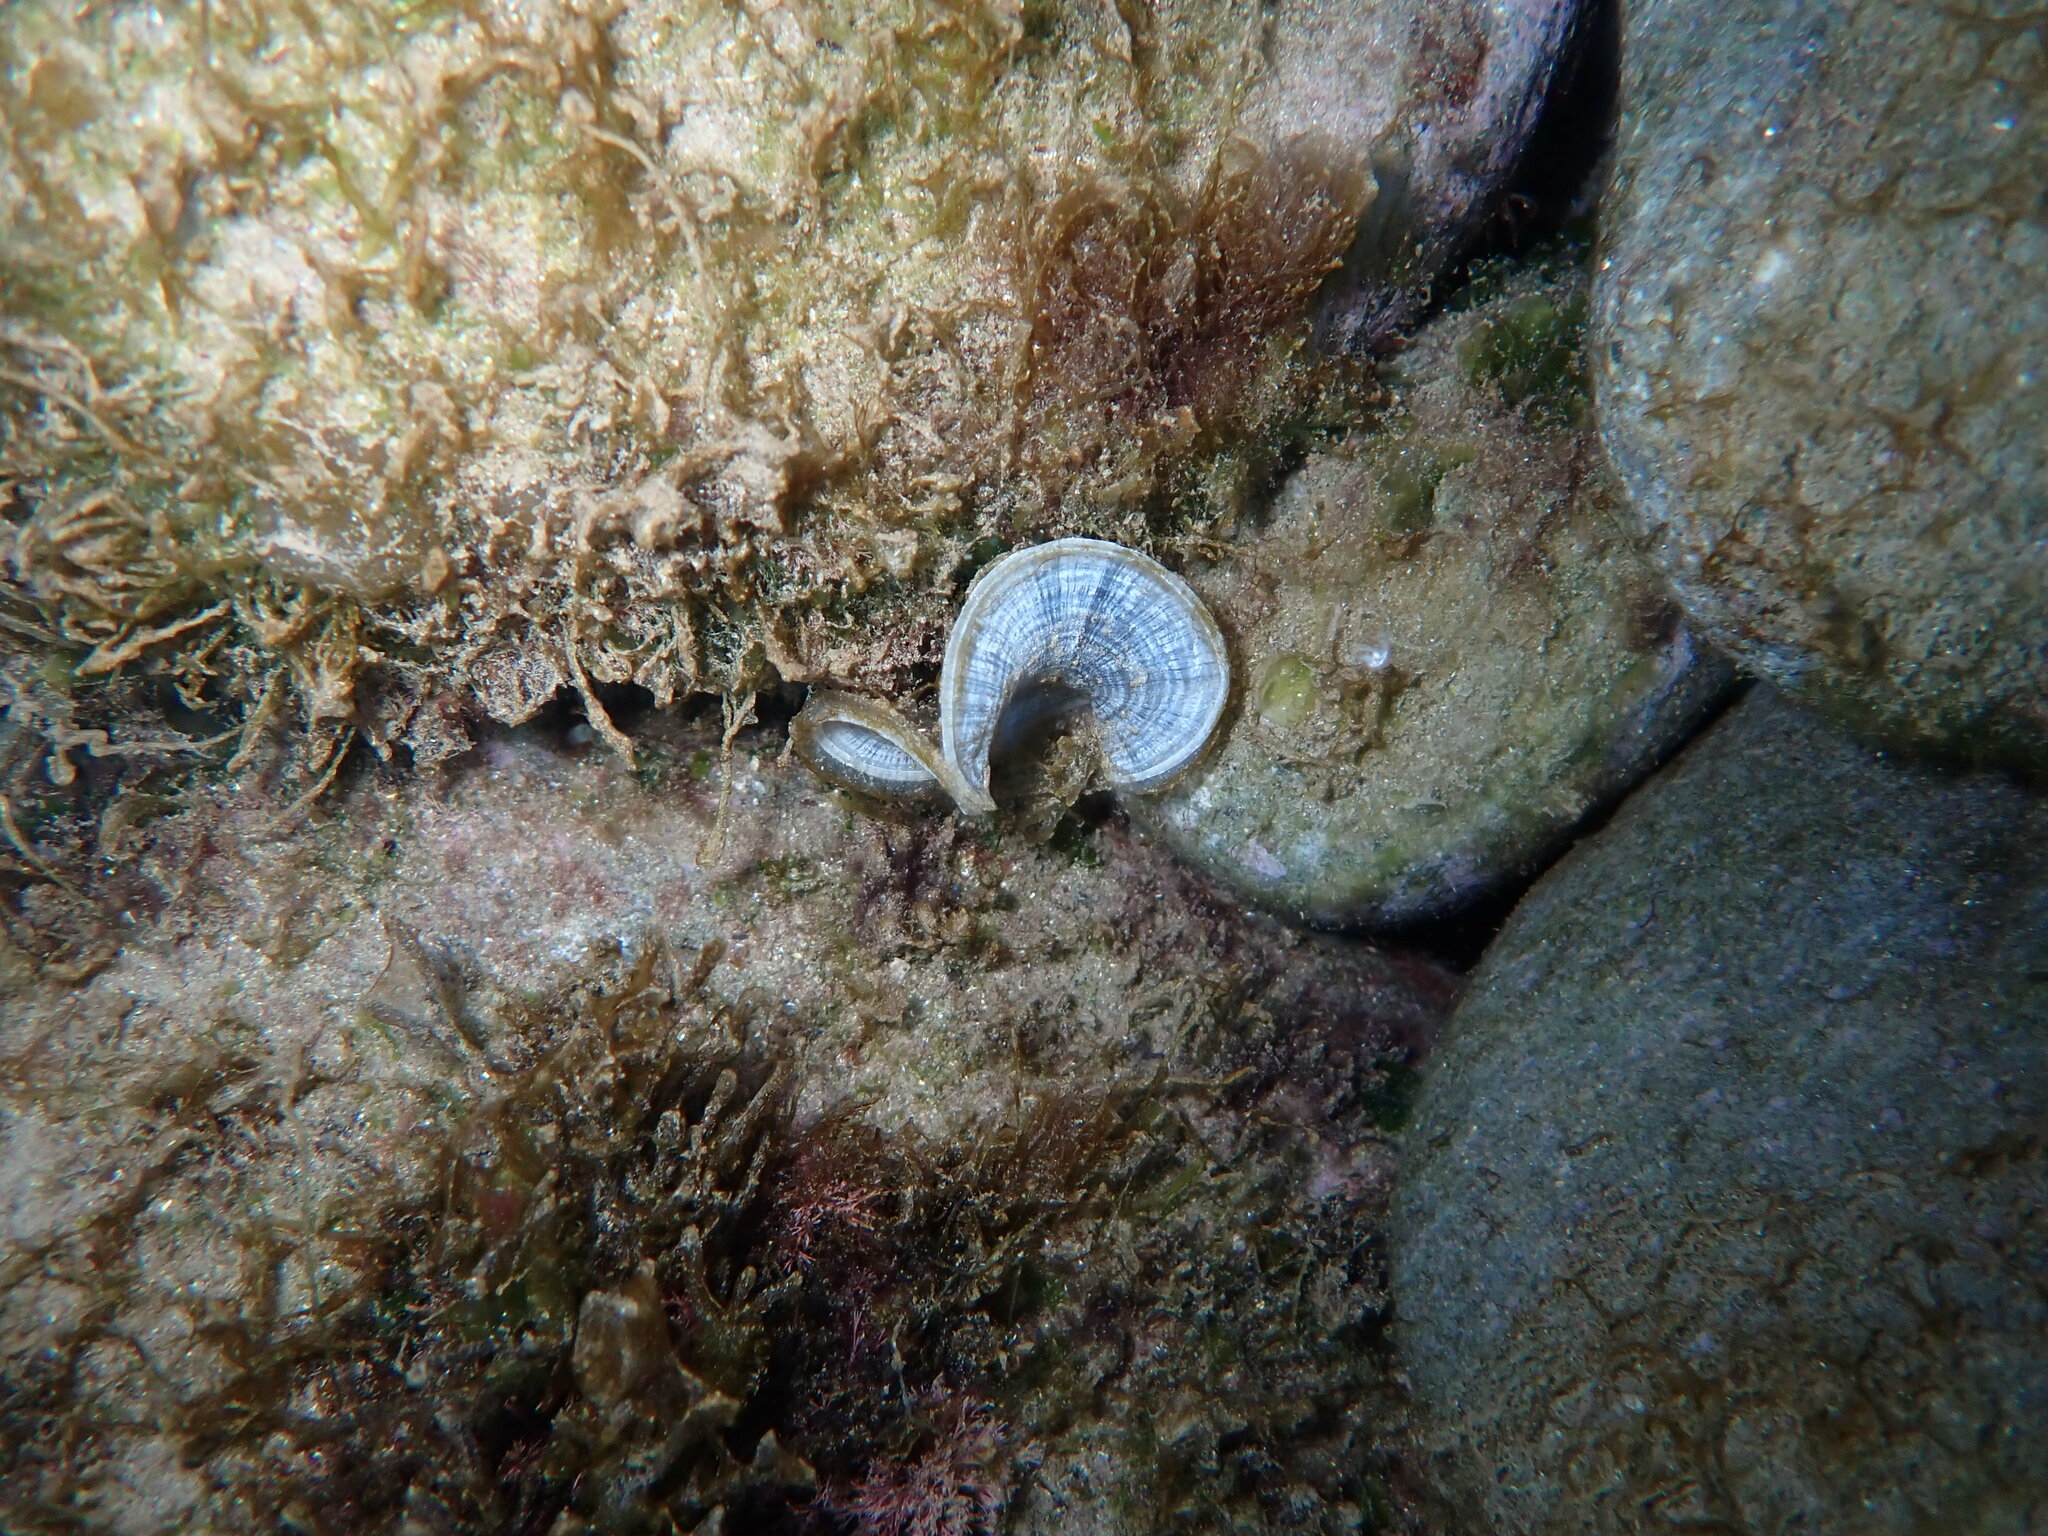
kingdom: Chromista
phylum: Ochrophyta
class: Phaeophyceae
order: Dictyotales
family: Dictyotaceae
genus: Padina
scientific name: Padina
